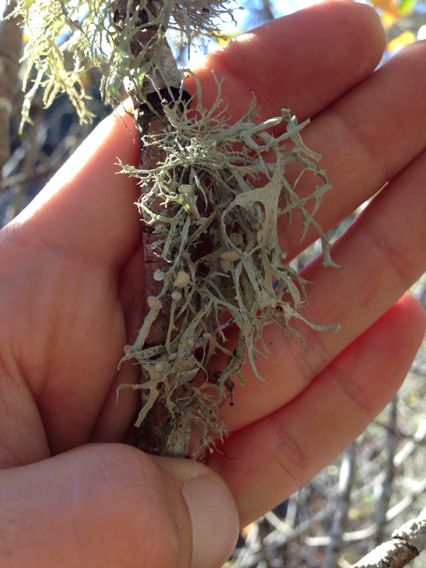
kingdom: Fungi
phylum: Ascomycota
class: Lecanoromycetes
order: Lecanorales
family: Ramalinaceae
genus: Ramalina
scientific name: Ramalina leptocarpha
